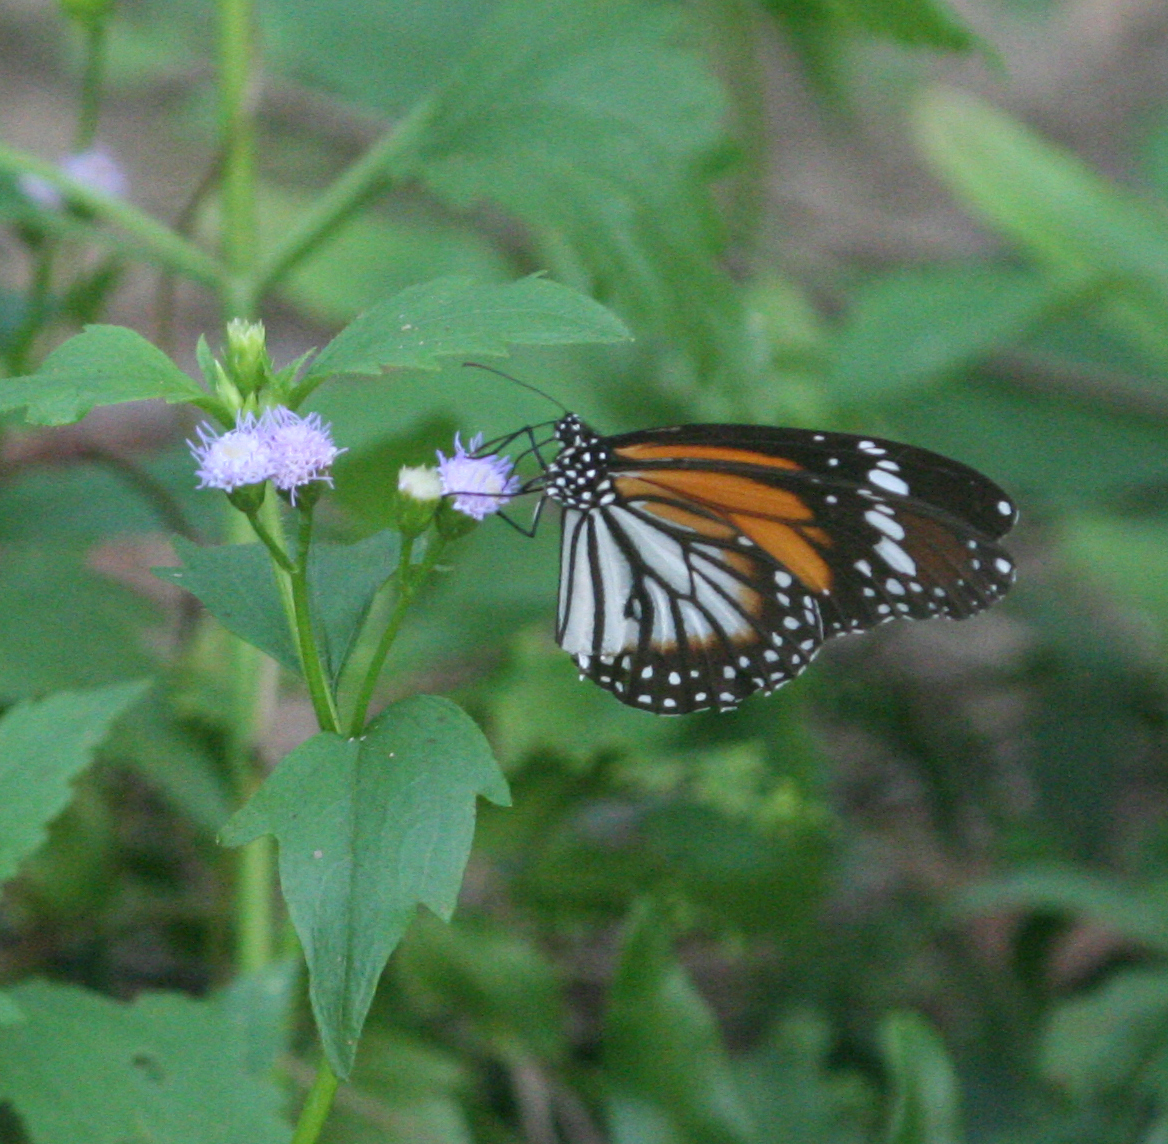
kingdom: Animalia
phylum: Arthropoda
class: Insecta
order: Lepidoptera
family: Nymphalidae
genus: Danaus
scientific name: Danaus melanippus
